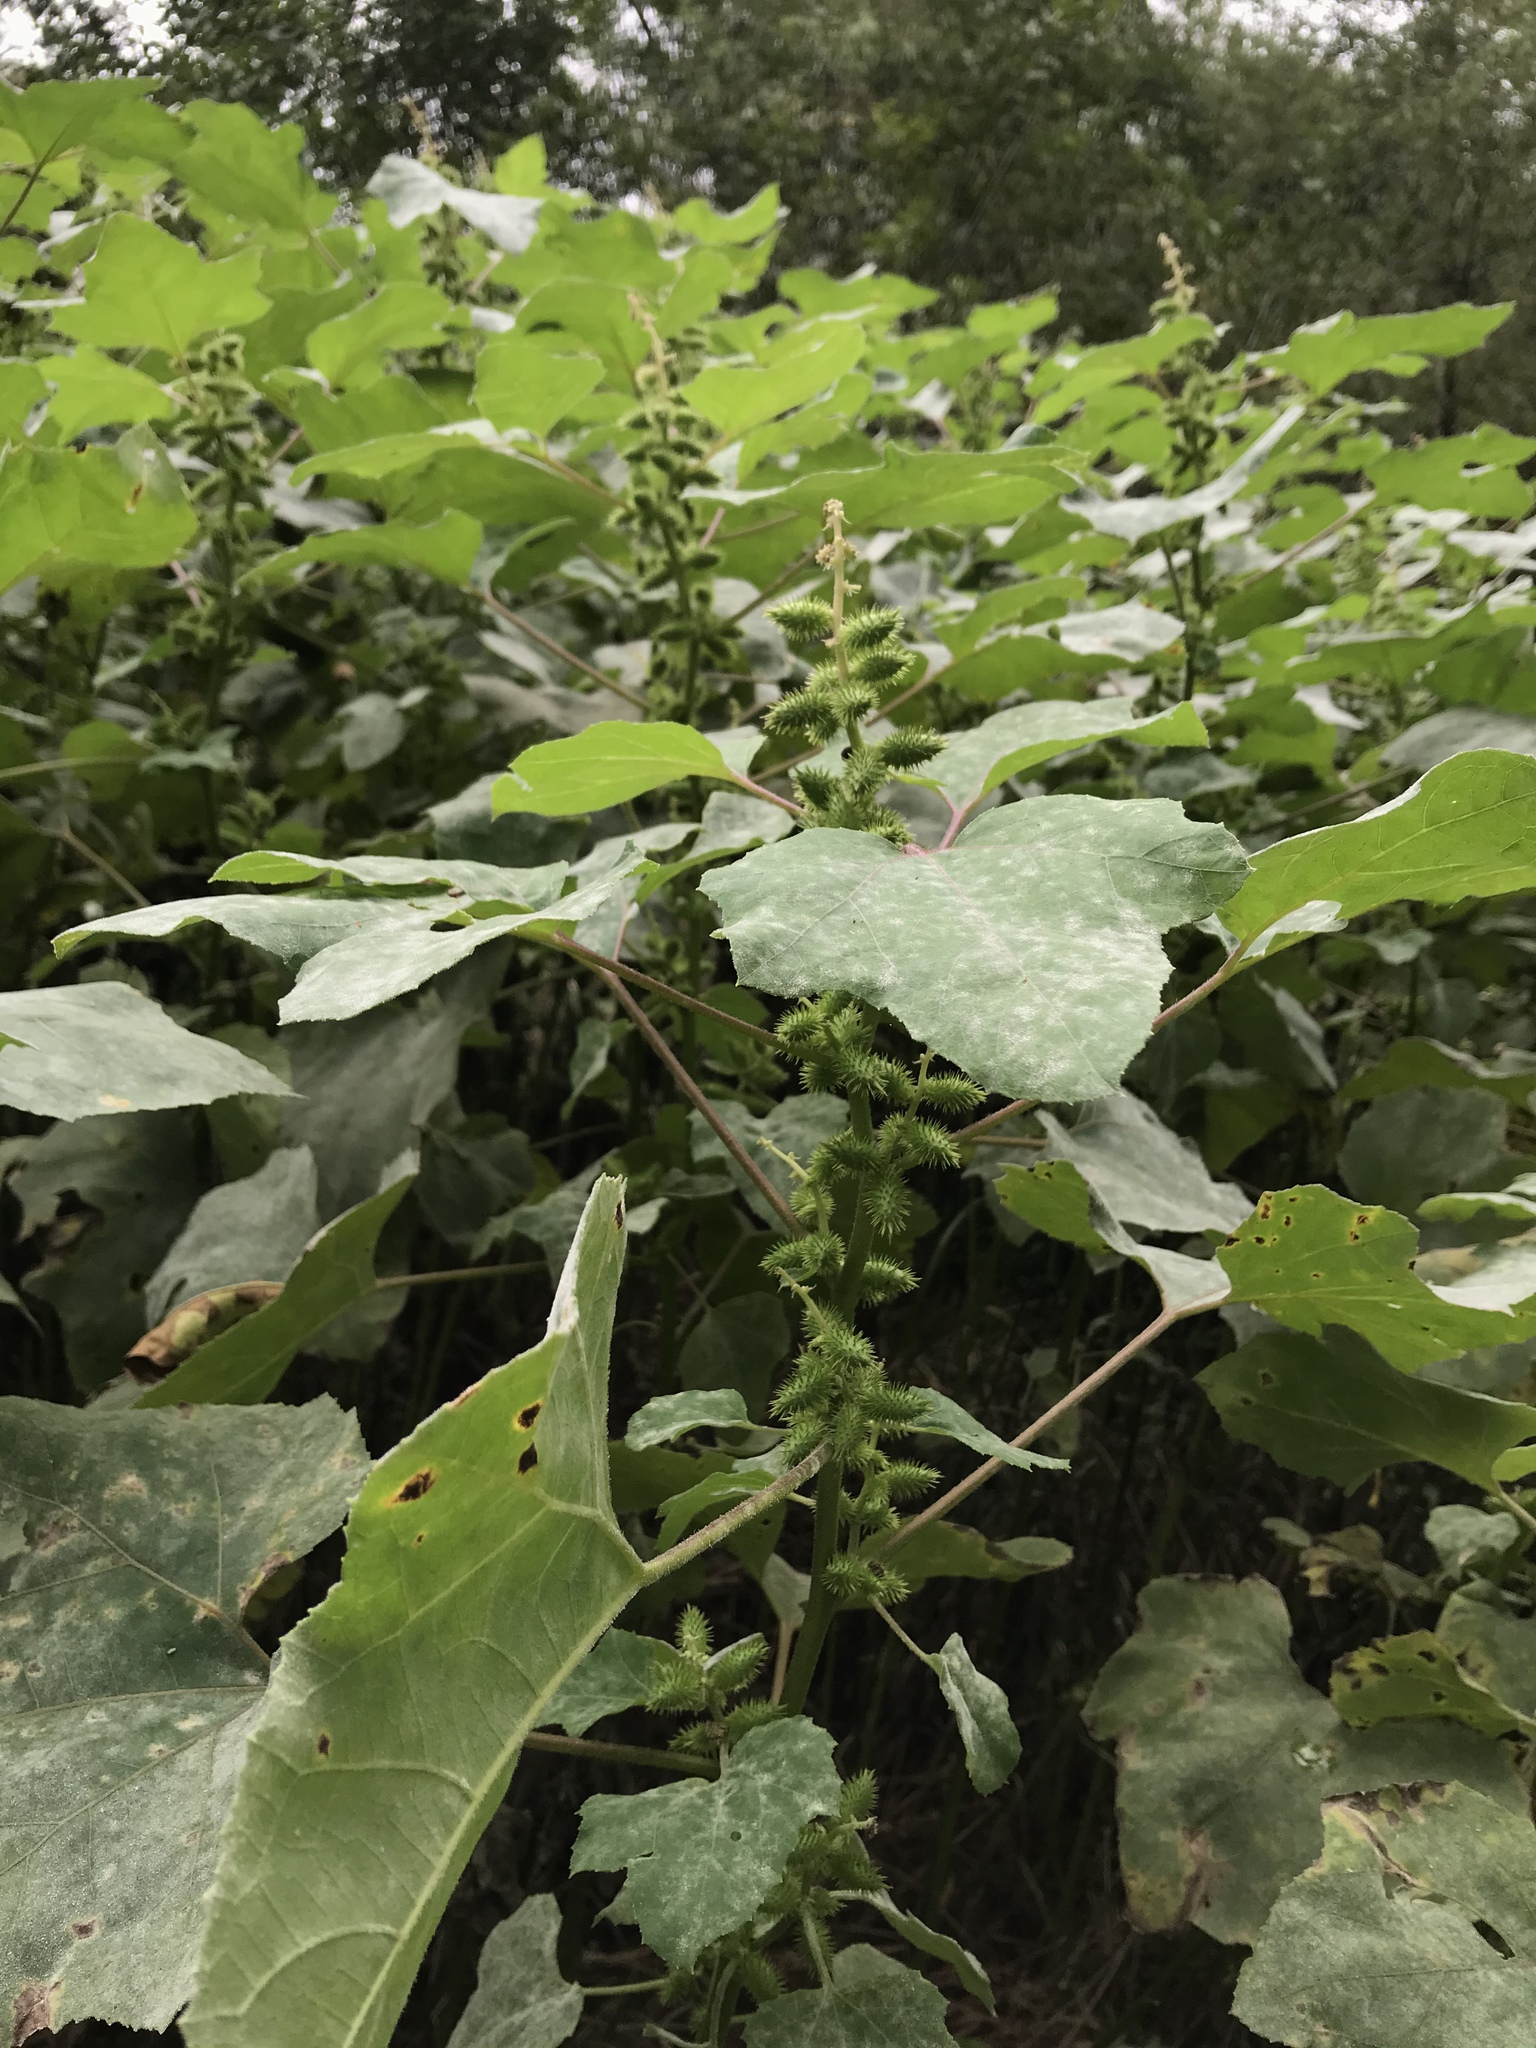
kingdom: Plantae
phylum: Tracheophyta
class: Magnoliopsida
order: Asterales
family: Asteraceae
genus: Xanthium
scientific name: Xanthium strumarium
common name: Rough cocklebur
